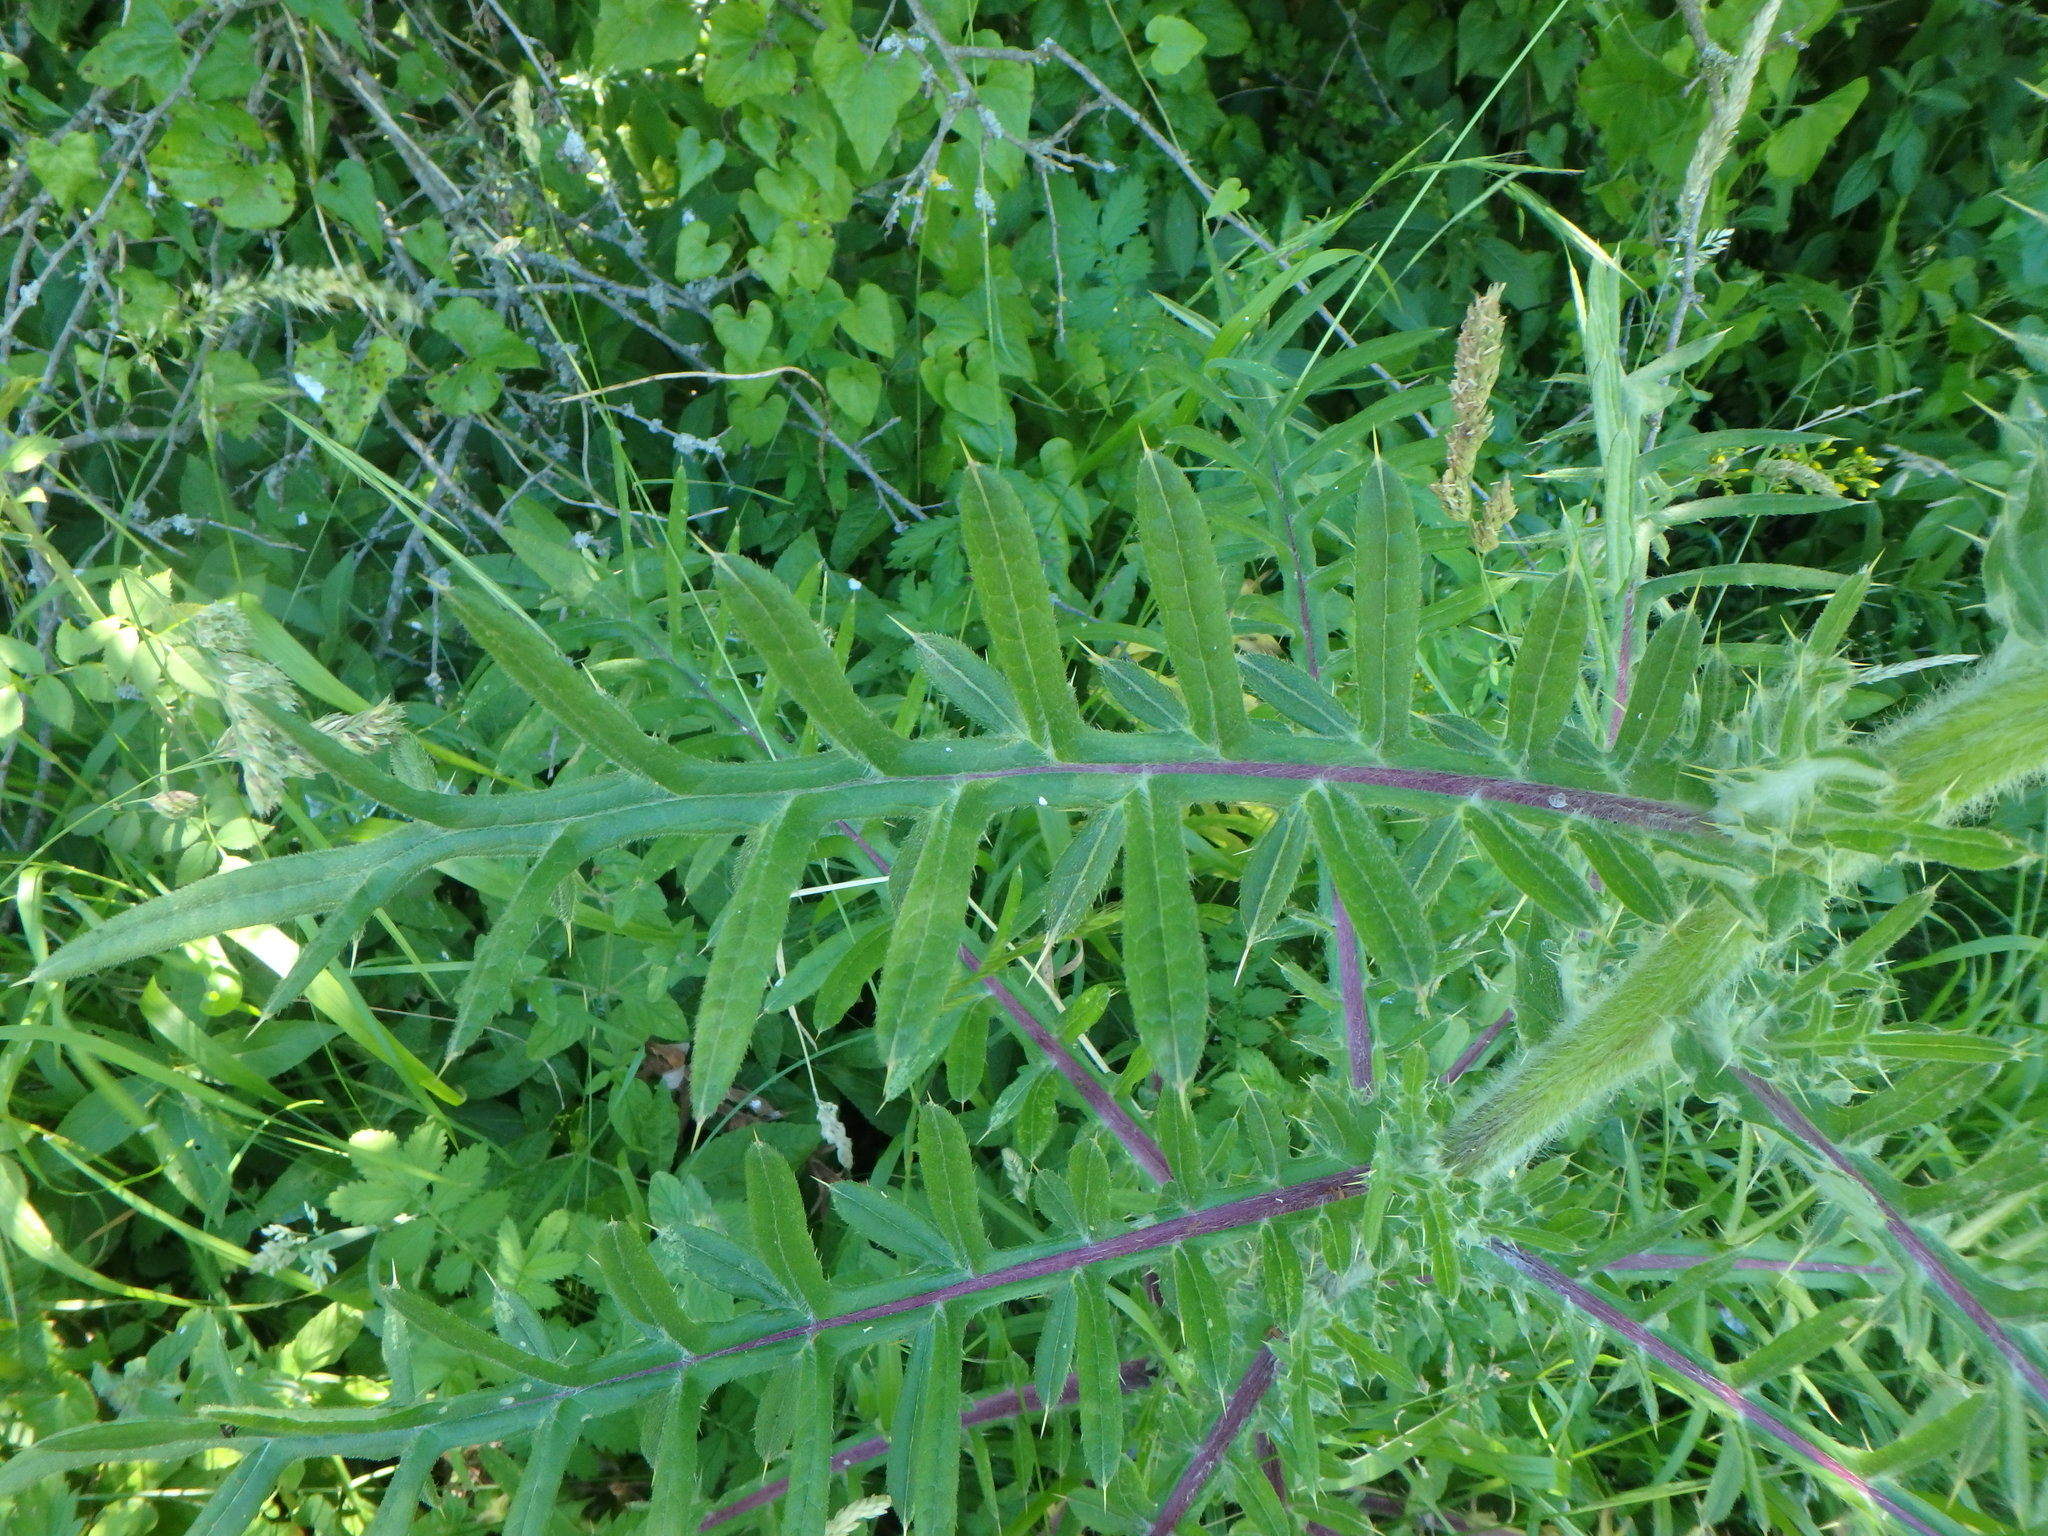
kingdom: Plantae
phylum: Tracheophyta
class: Magnoliopsida
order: Asterales
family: Asteraceae
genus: Lophiolepis
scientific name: Lophiolepis eriophora
